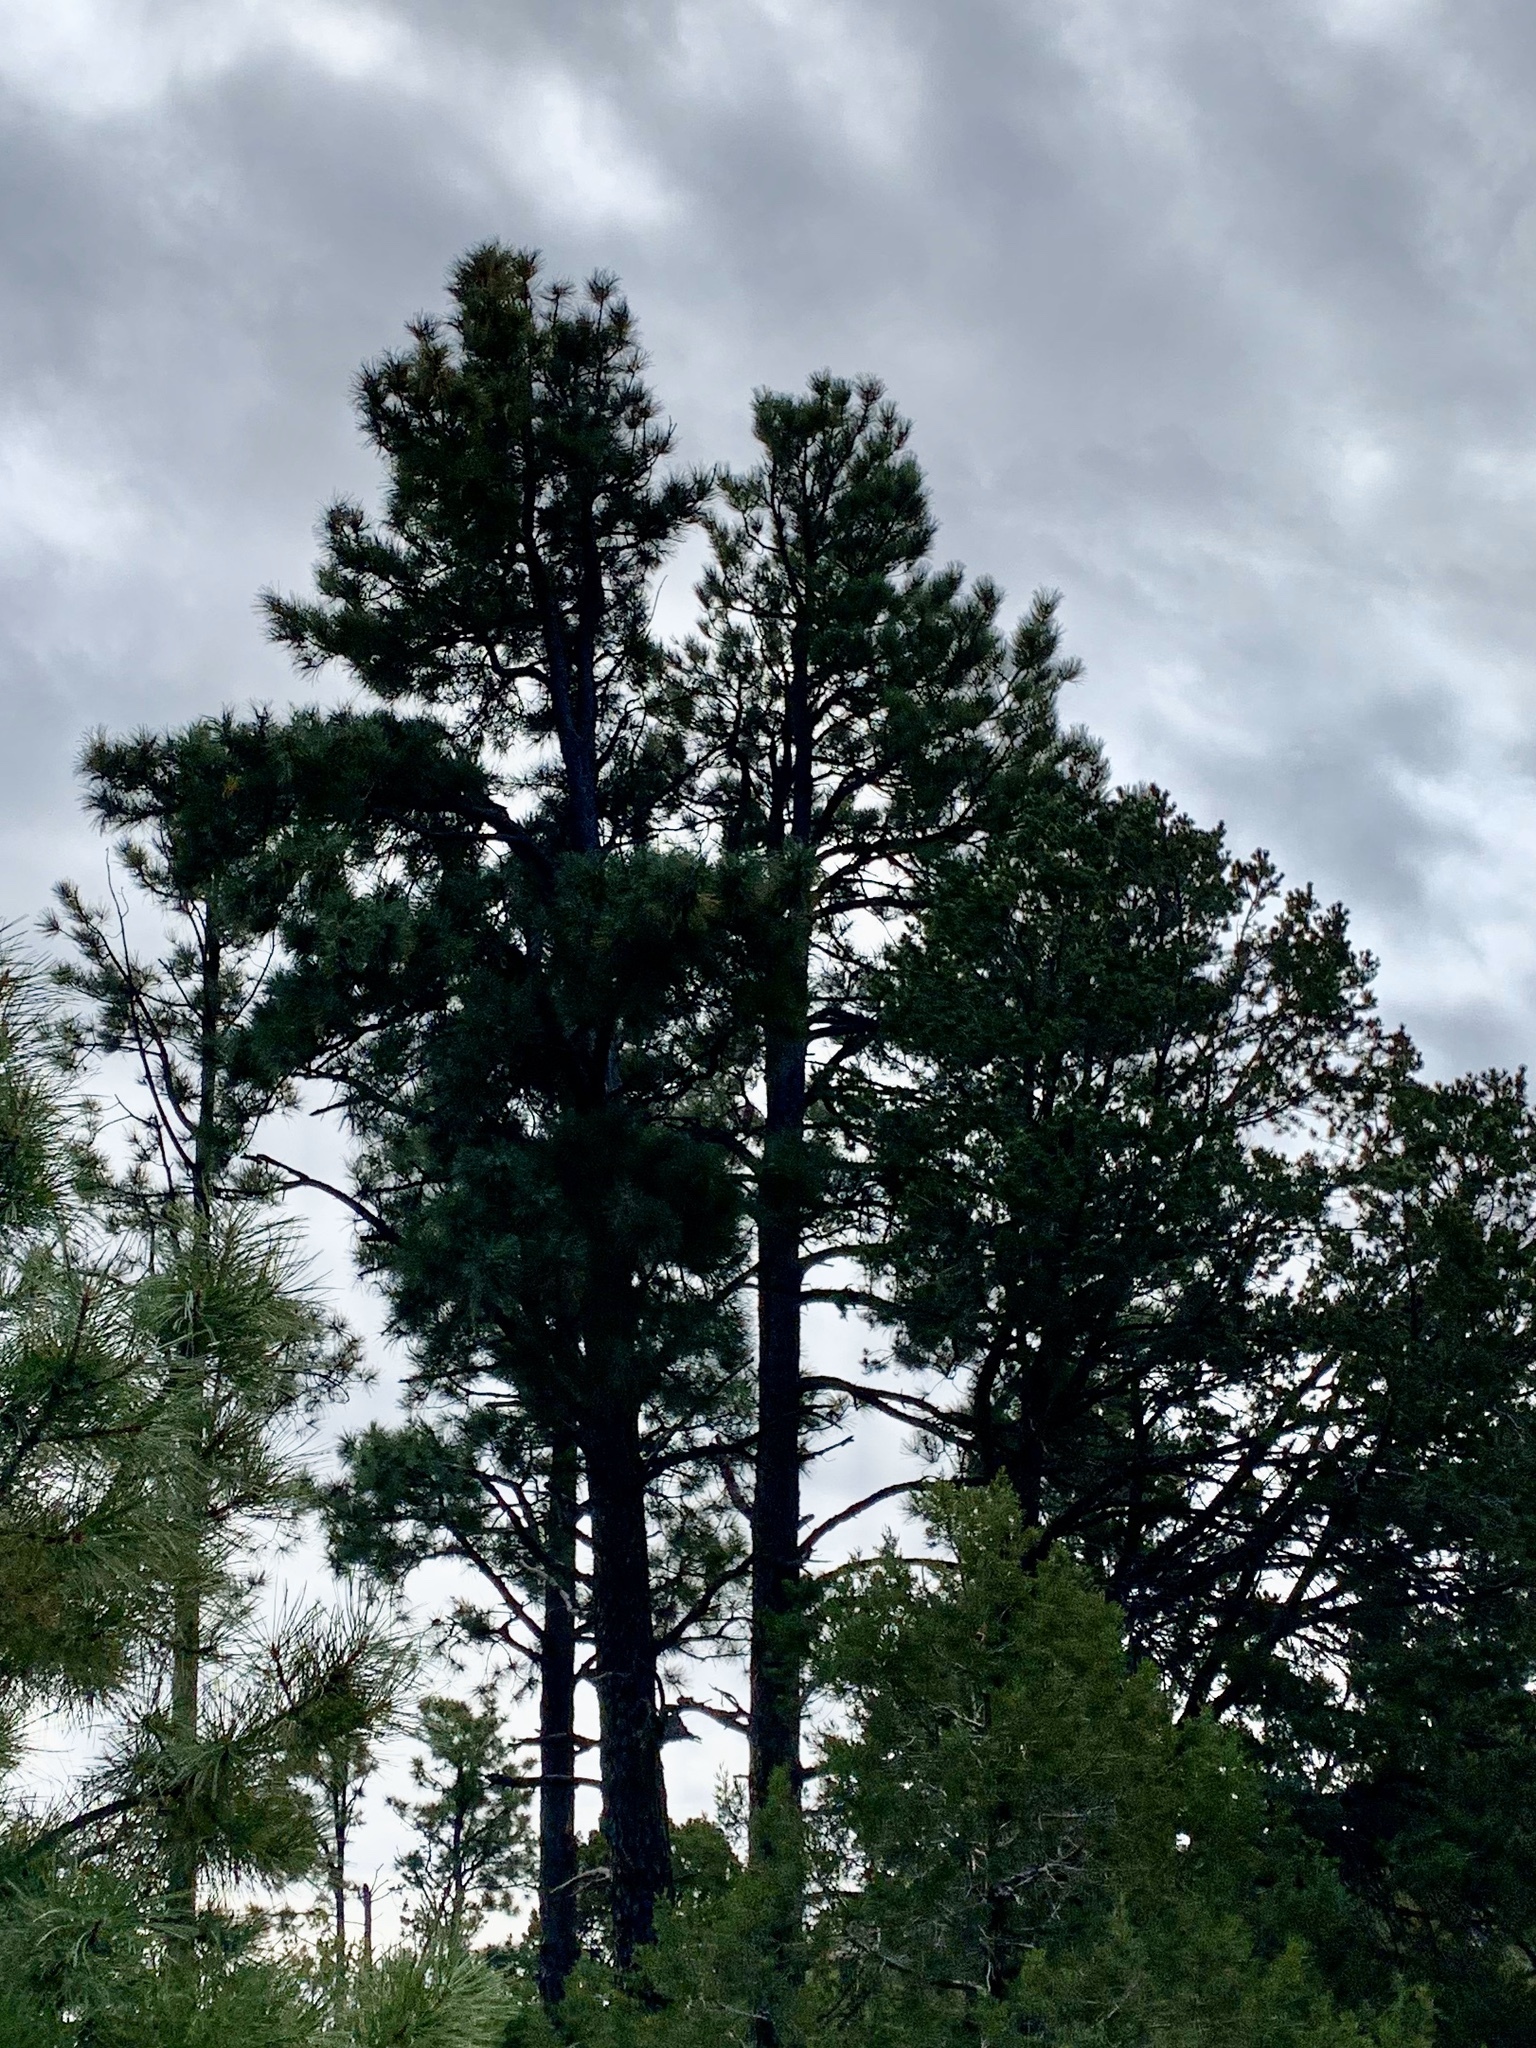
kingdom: Plantae
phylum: Tracheophyta
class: Pinopsida
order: Pinales
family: Pinaceae
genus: Pinus
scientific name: Pinus ponderosa
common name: Western yellow-pine
